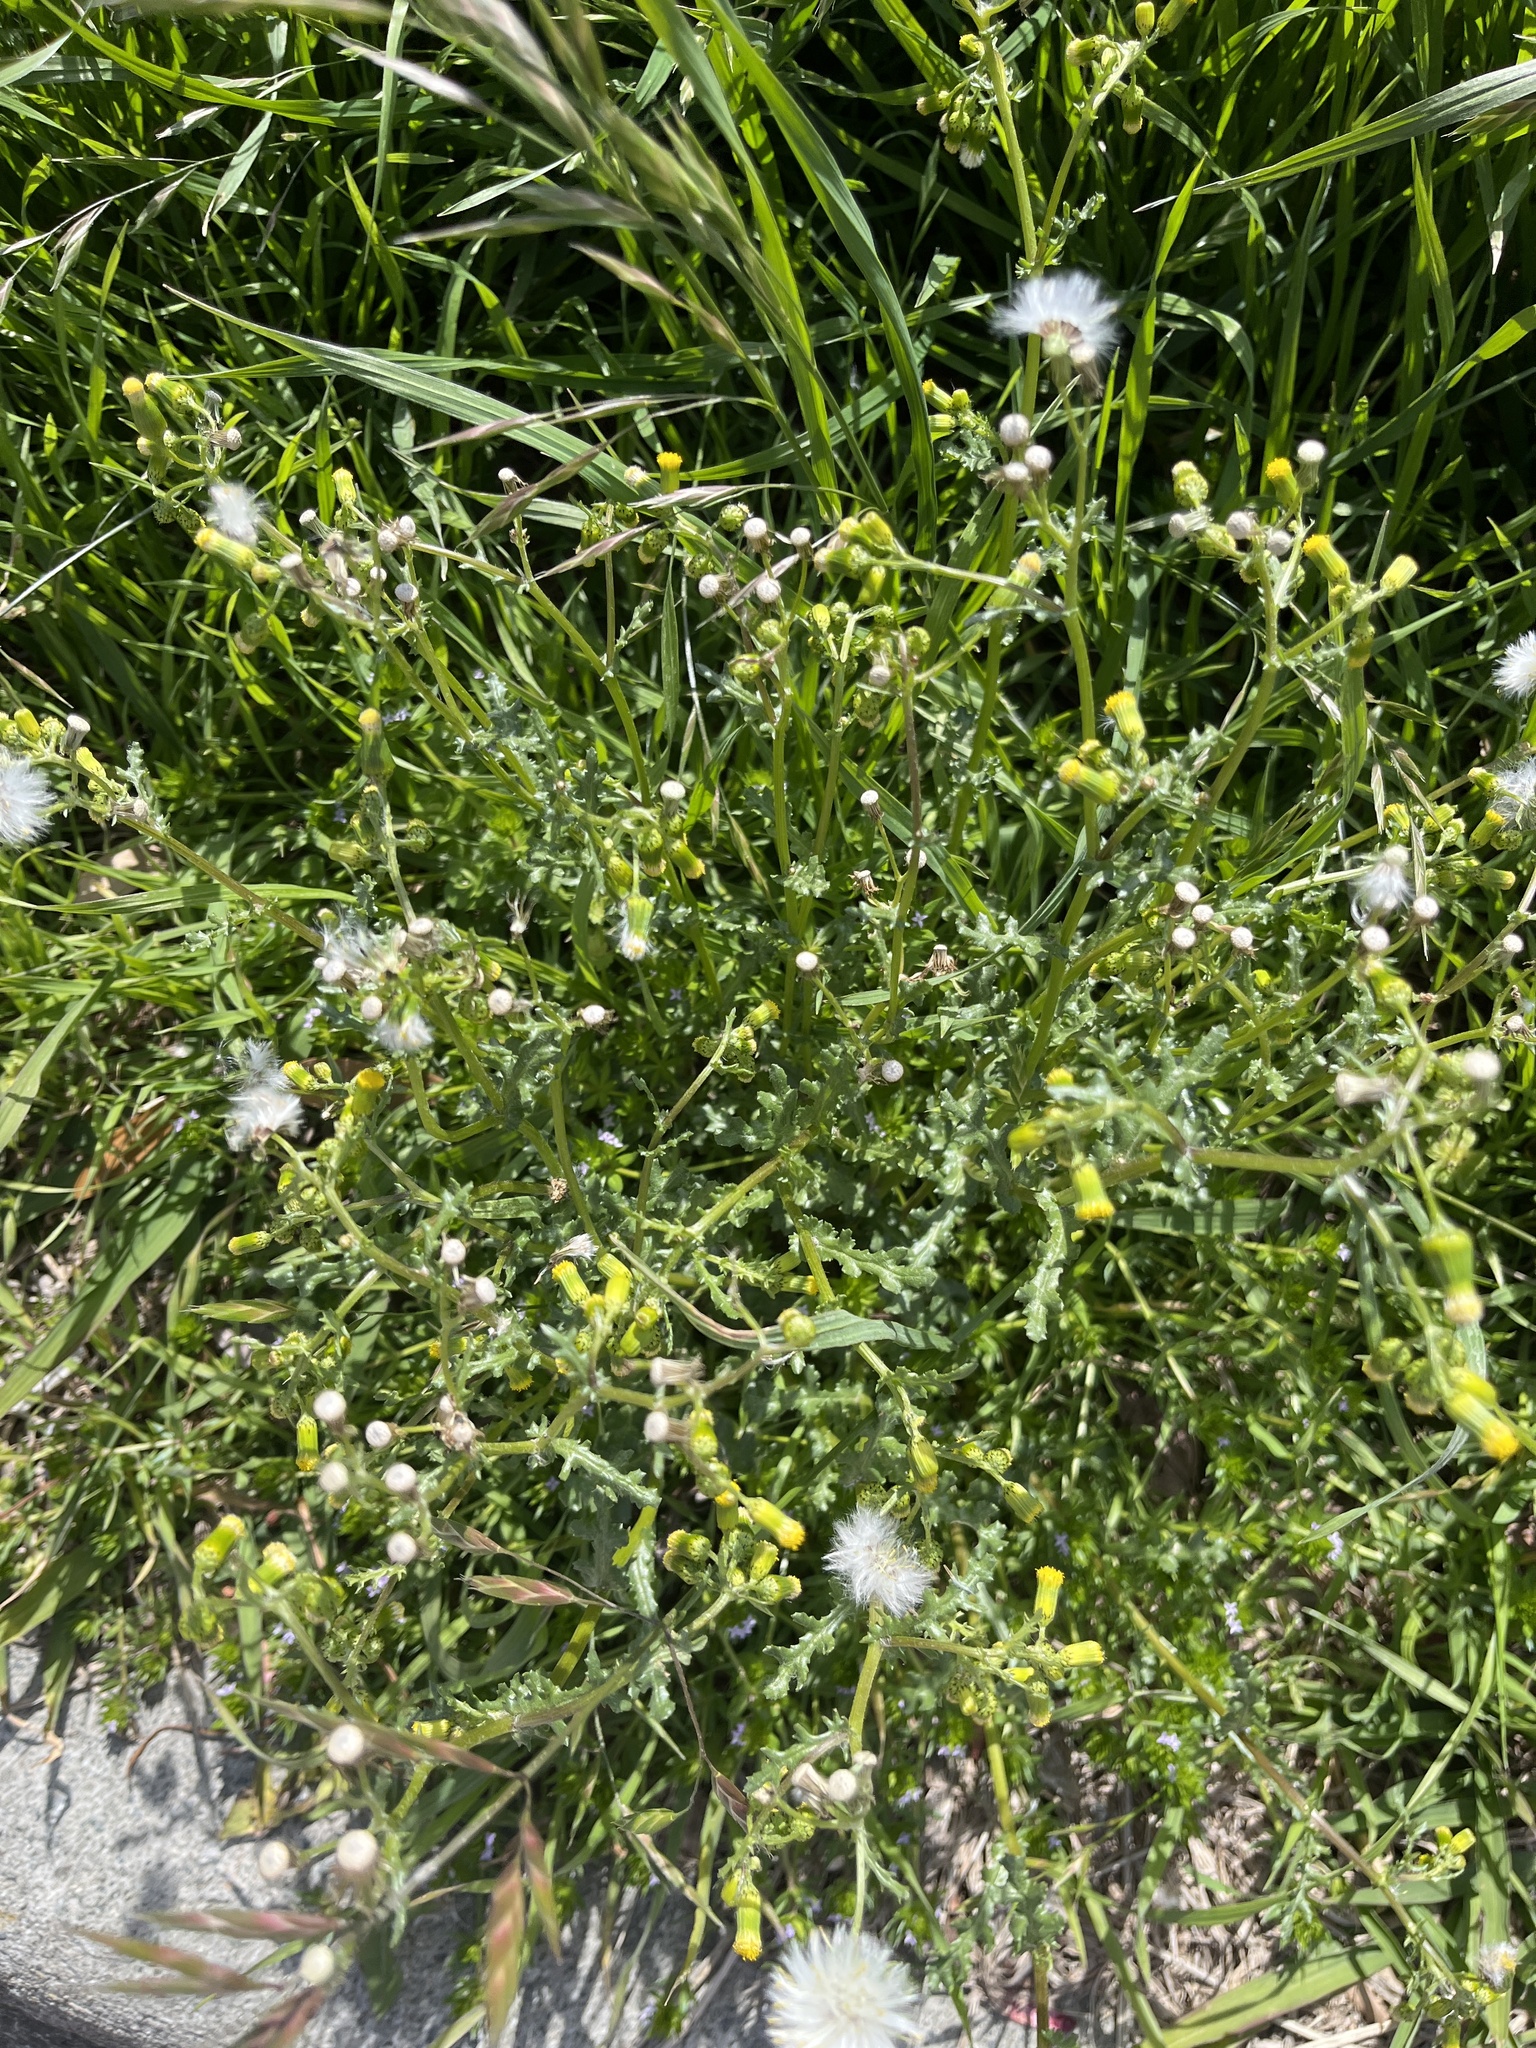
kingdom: Plantae
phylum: Tracheophyta
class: Magnoliopsida
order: Asterales
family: Asteraceae
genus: Senecio
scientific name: Senecio vulgaris
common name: Old-man-in-the-spring
